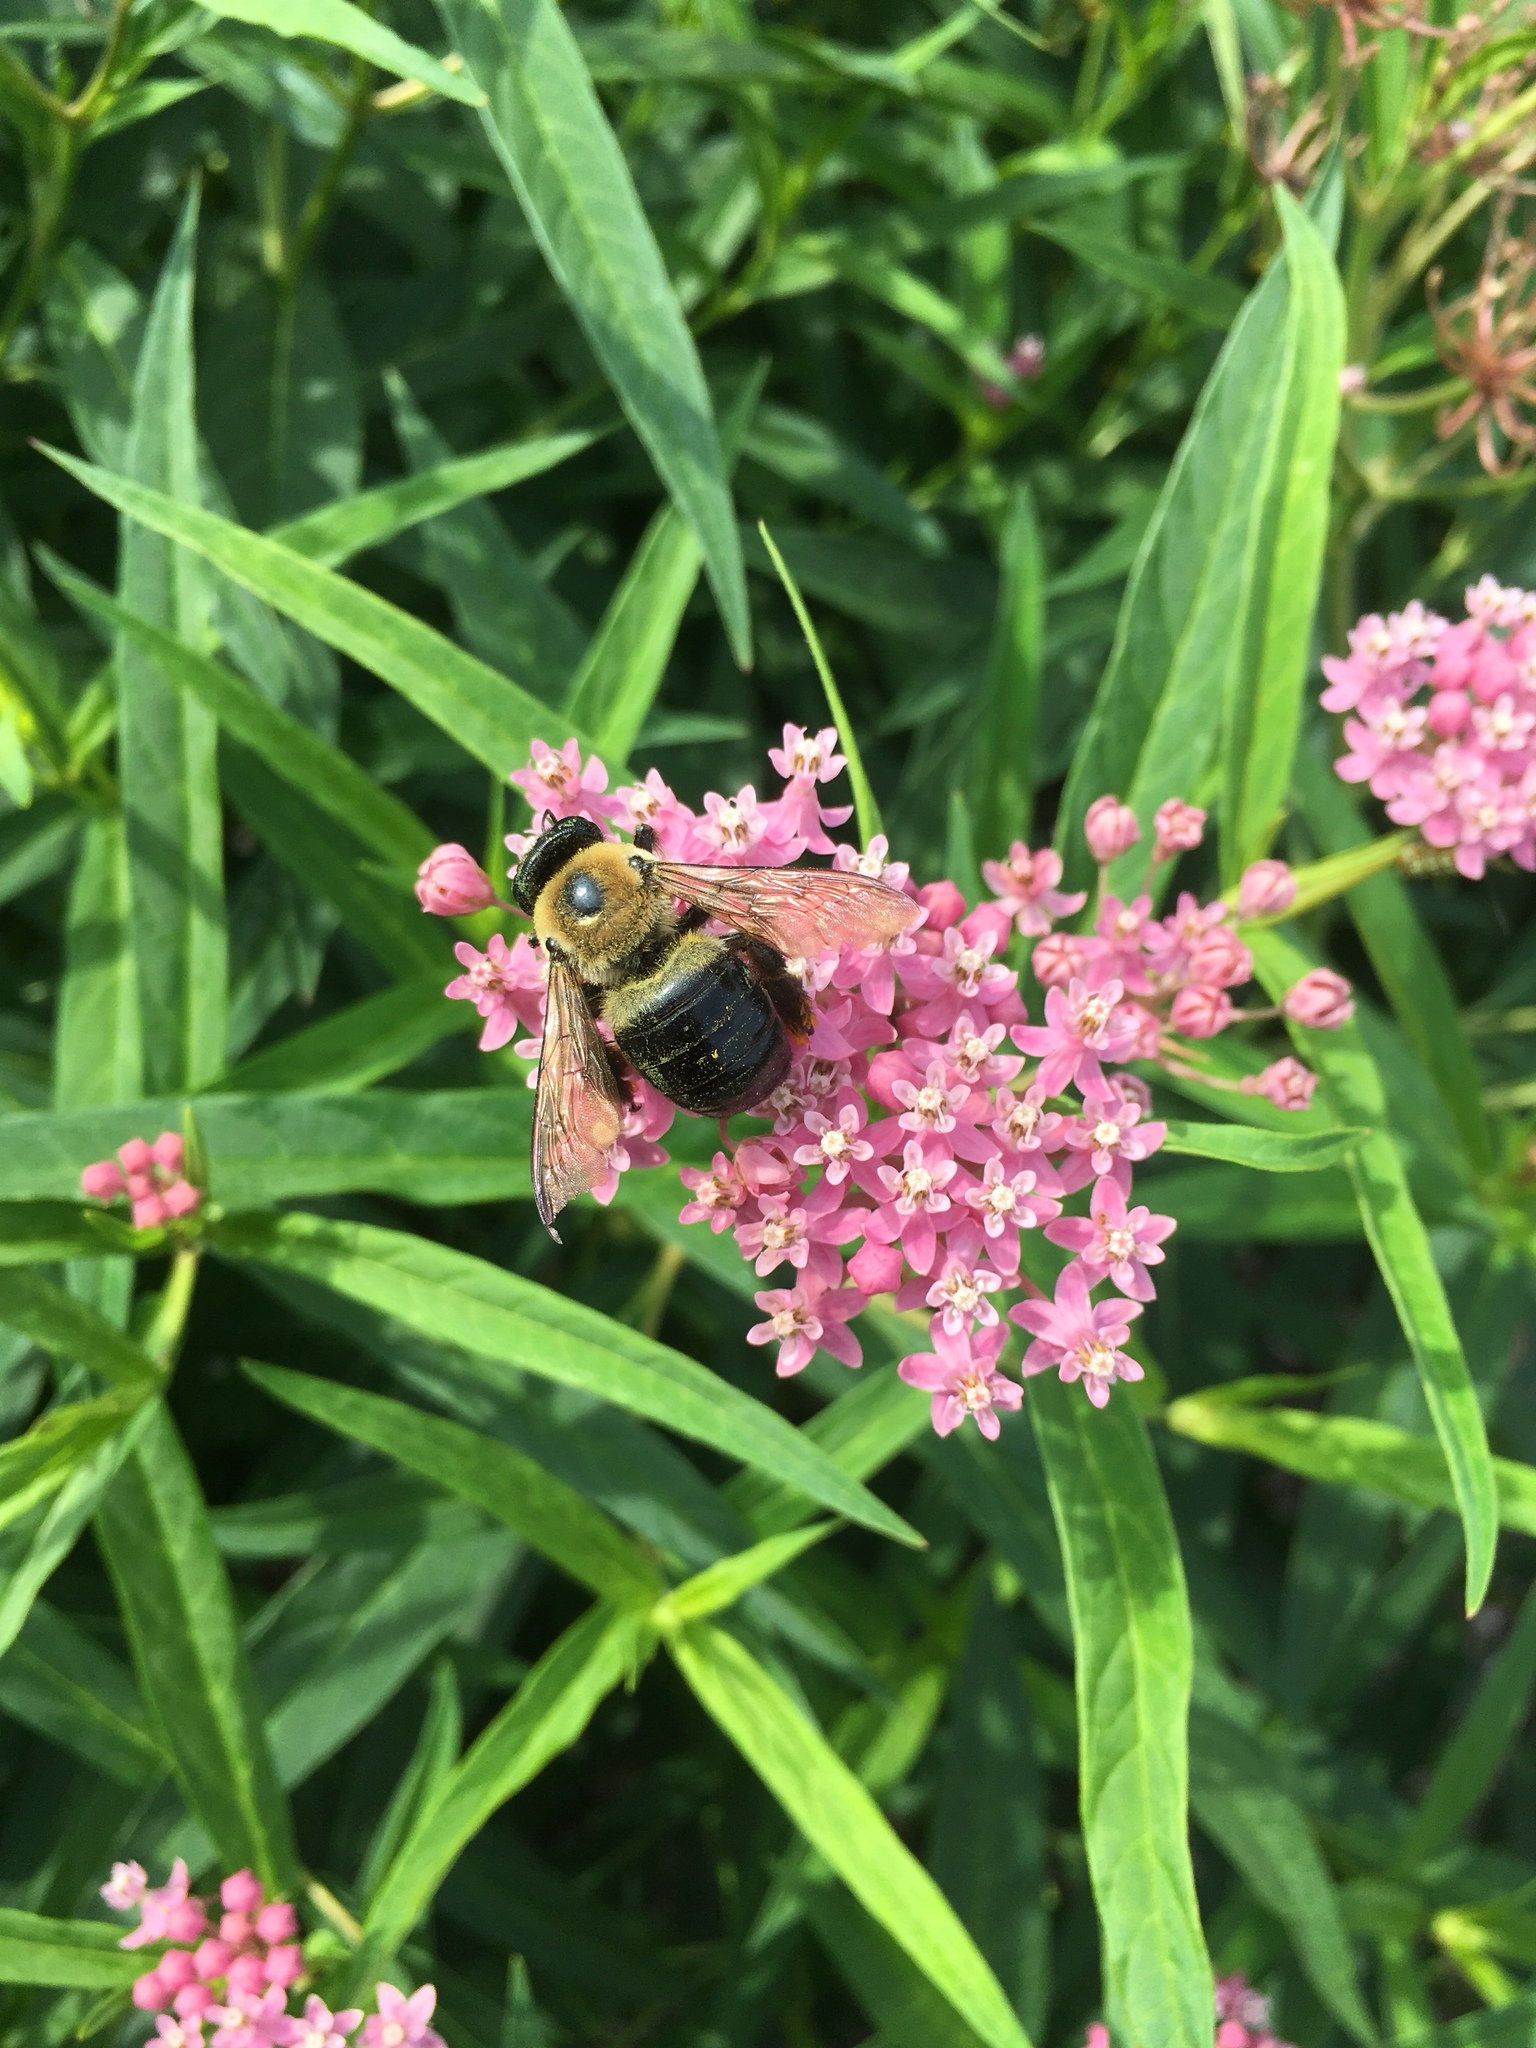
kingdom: Animalia
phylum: Arthropoda
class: Insecta
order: Hymenoptera
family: Apidae
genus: Xylocopa
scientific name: Xylocopa virginica
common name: Carpenter bee
